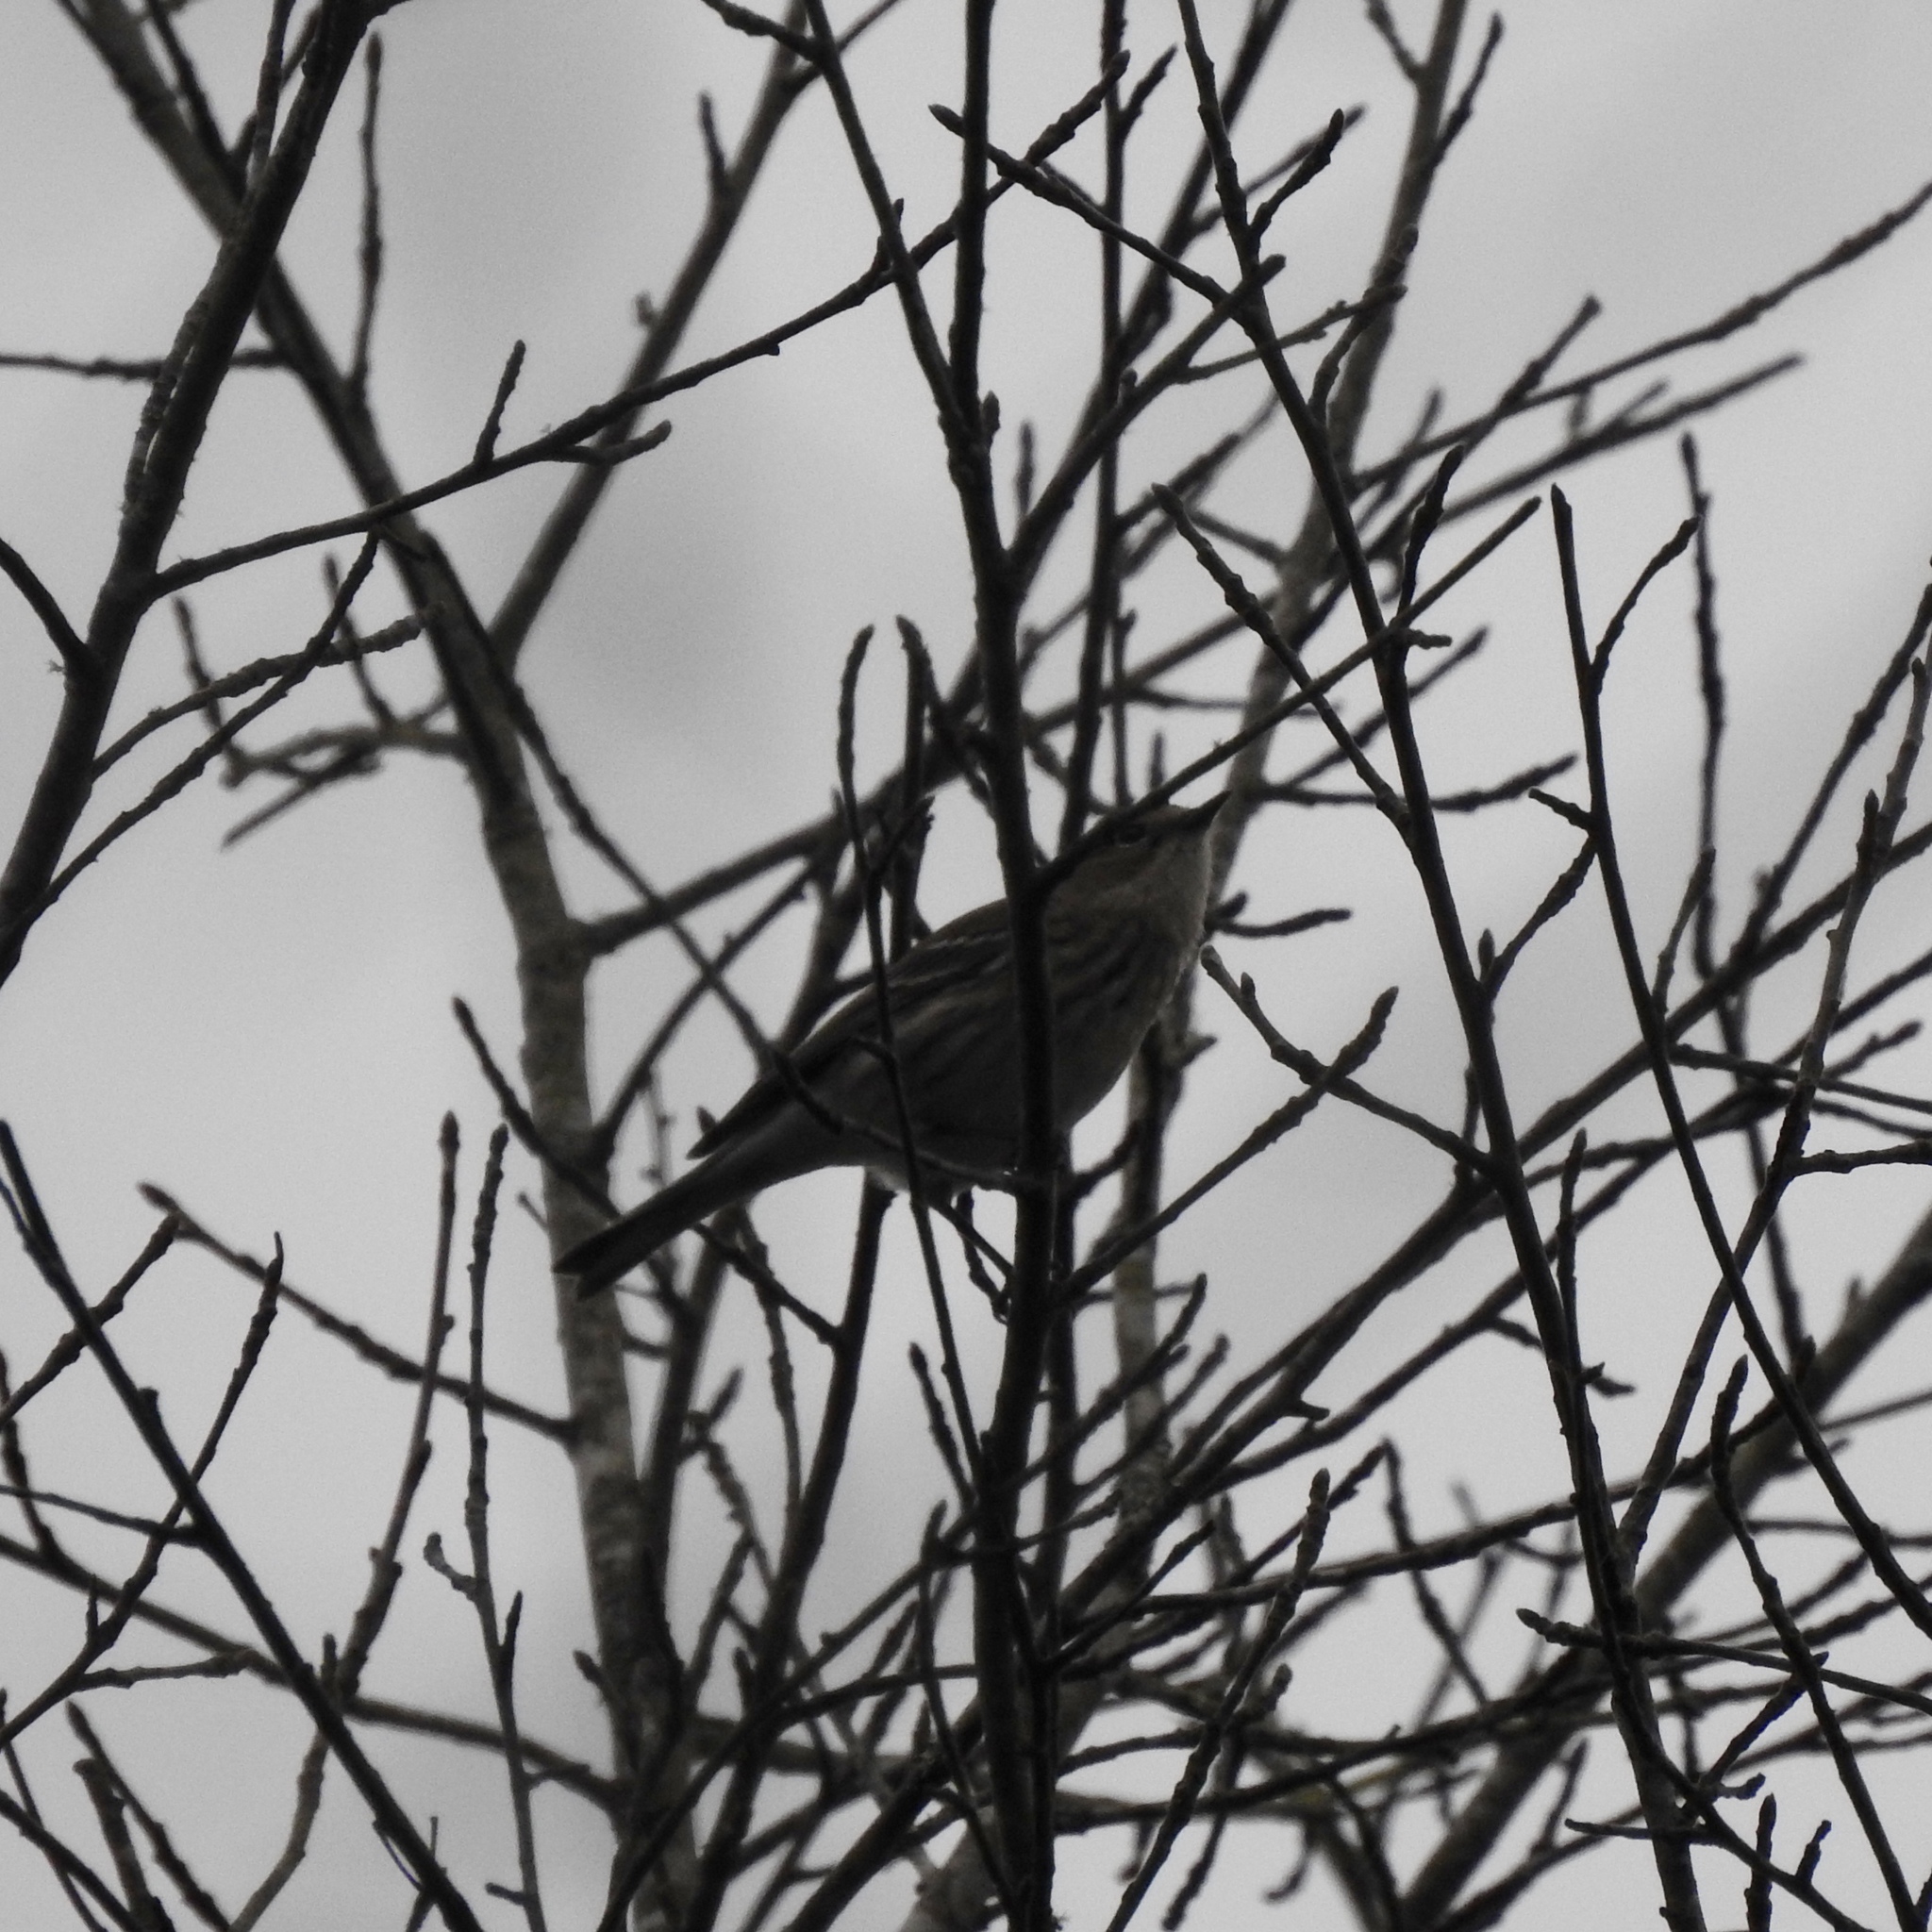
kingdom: Animalia
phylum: Chordata
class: Aves
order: Passeriformes
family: Parulidae
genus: Setophaga
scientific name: Setophaga coronata
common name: Myrtle warbler
